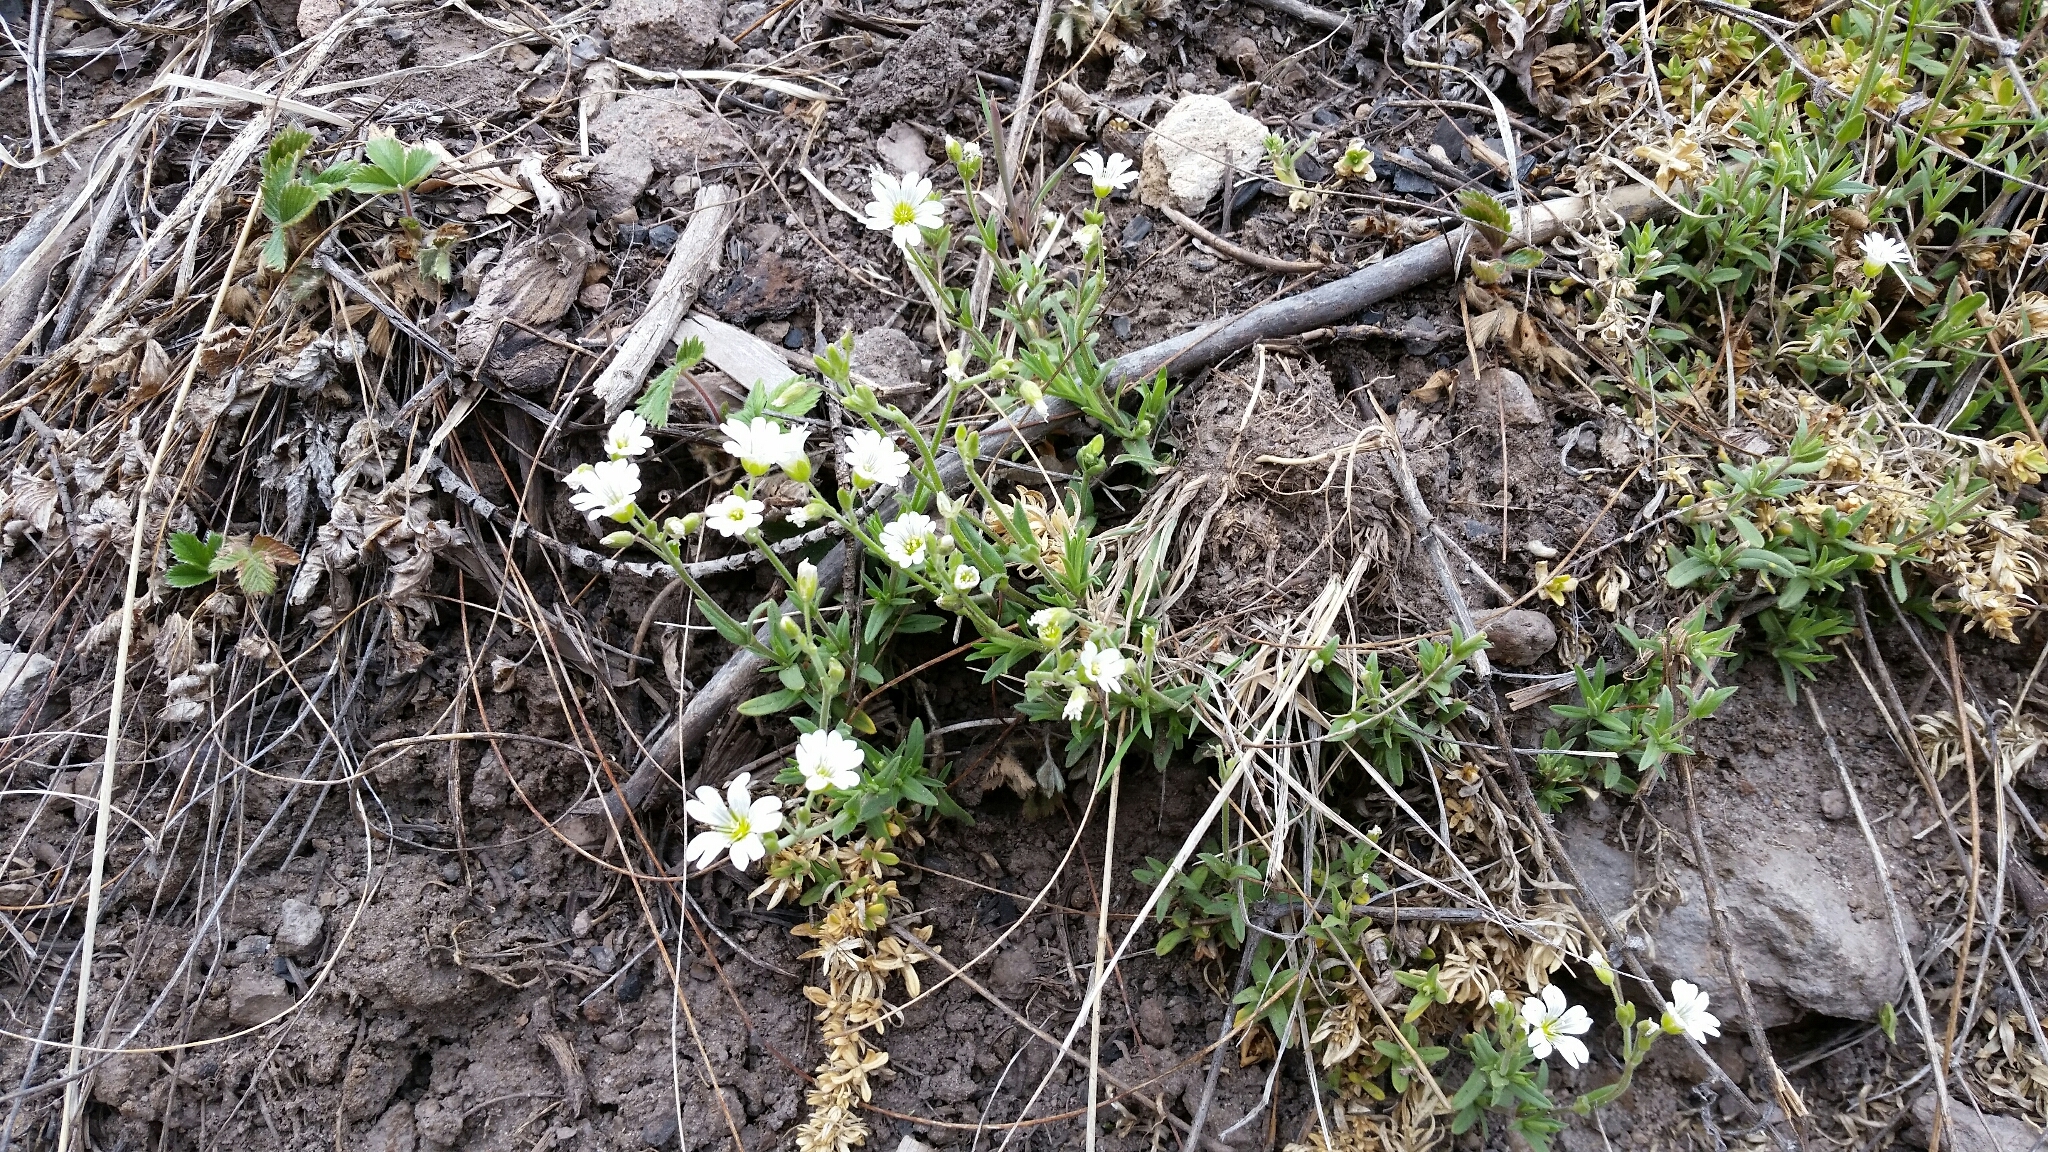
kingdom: Plantae
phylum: Tracheophyta
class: Magnoliopsida
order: Caryophyllales
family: Caryophyllaceae
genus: Cerastium
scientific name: Cerastium arvense
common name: Field mouse-ear
